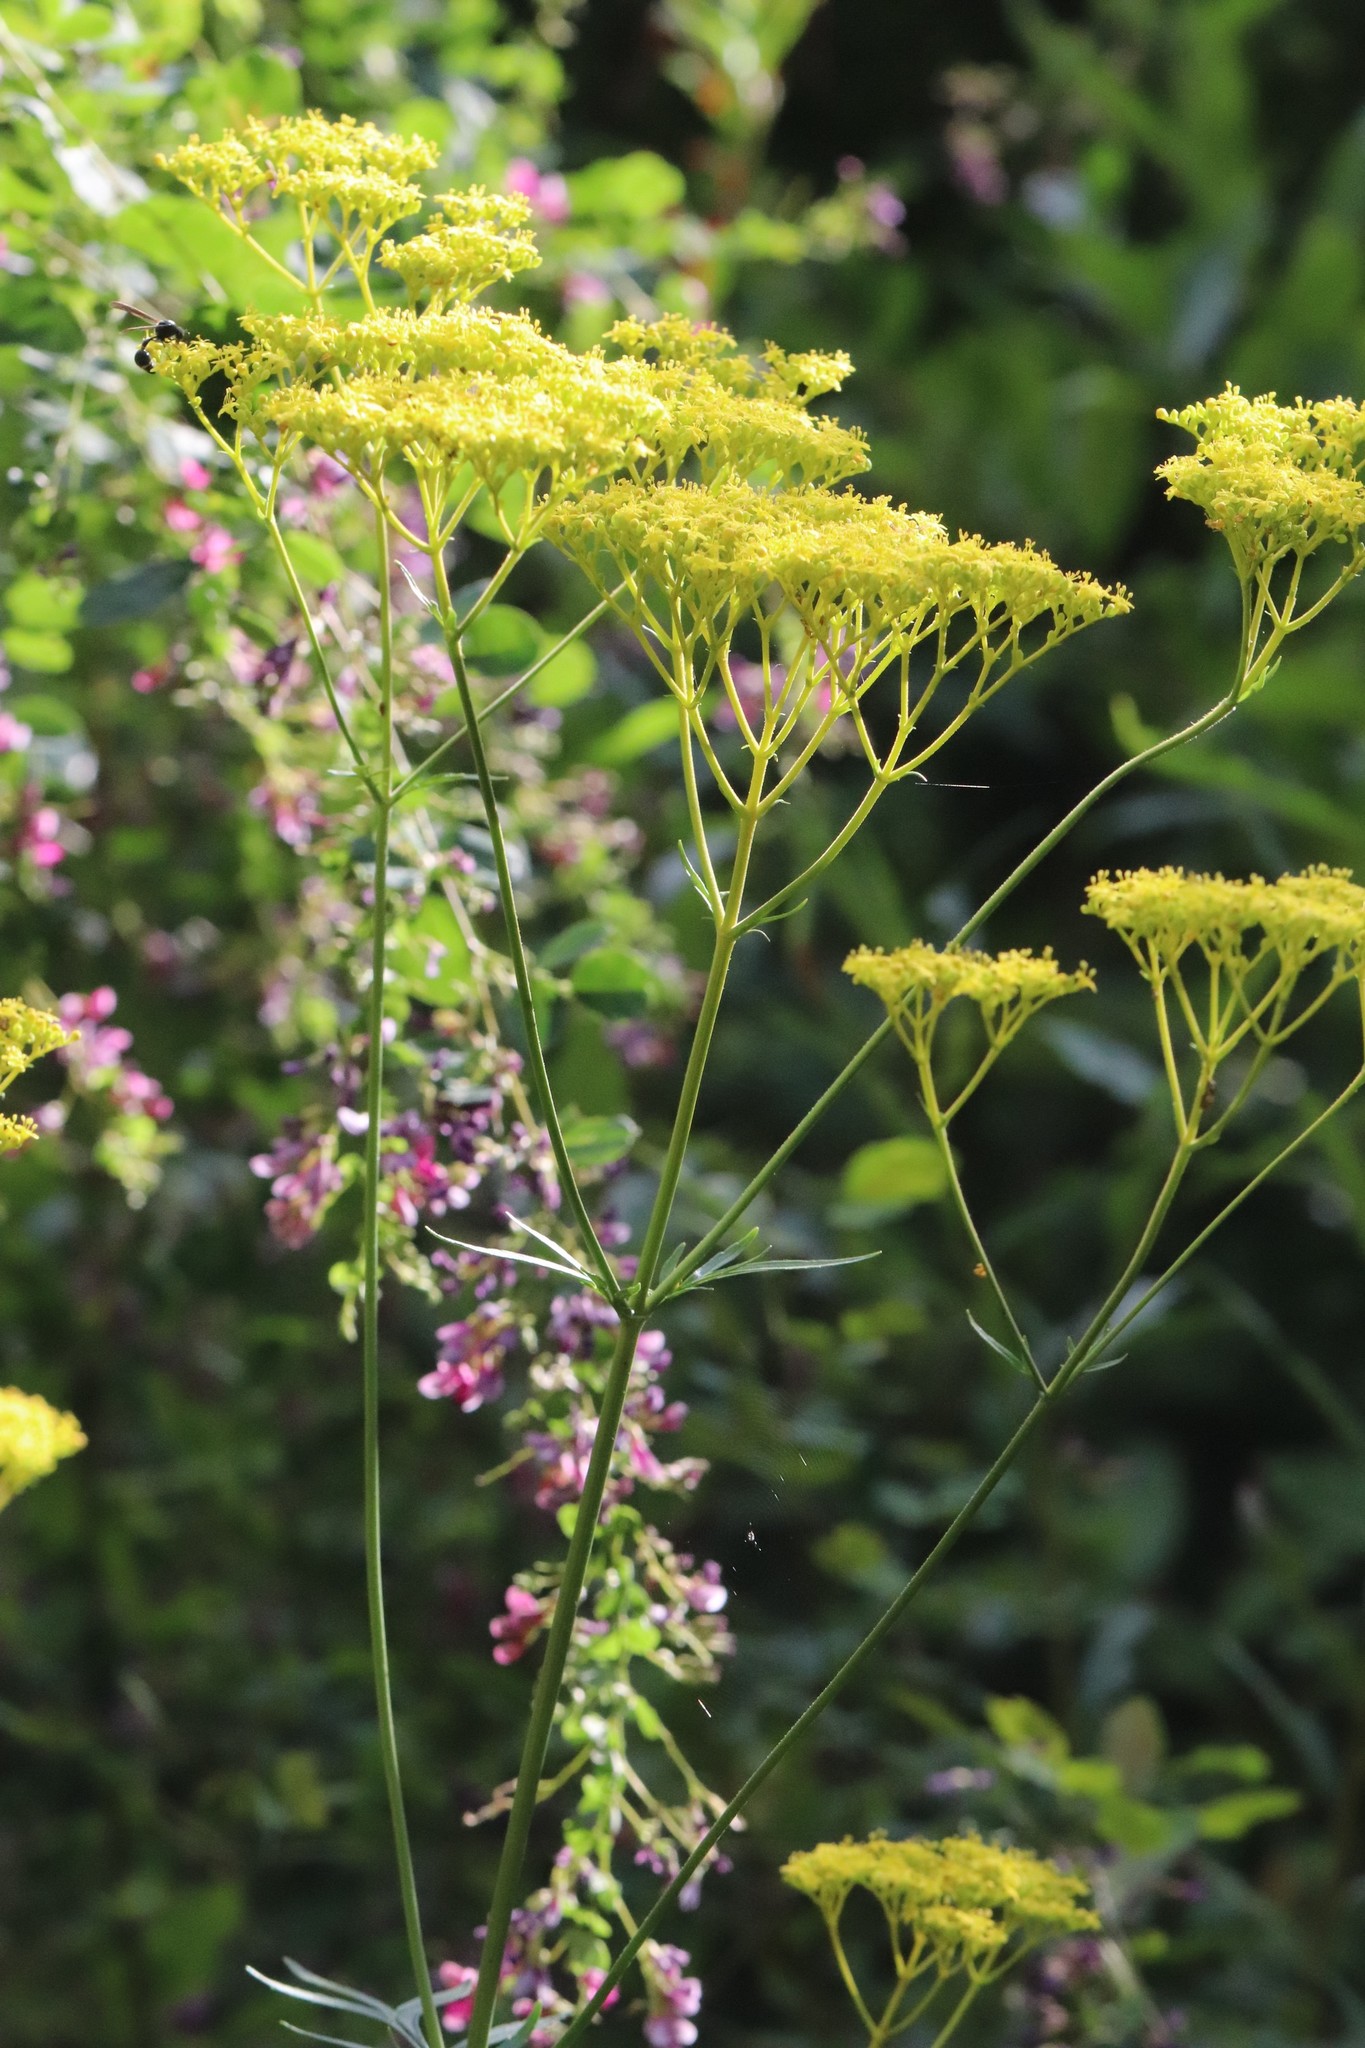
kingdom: Plantae
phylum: Tracheophyta
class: Magnoliopsida
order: Dipsacales
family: Caprifoliaceae
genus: Patrinia
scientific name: Patrinia scabiosifolia
